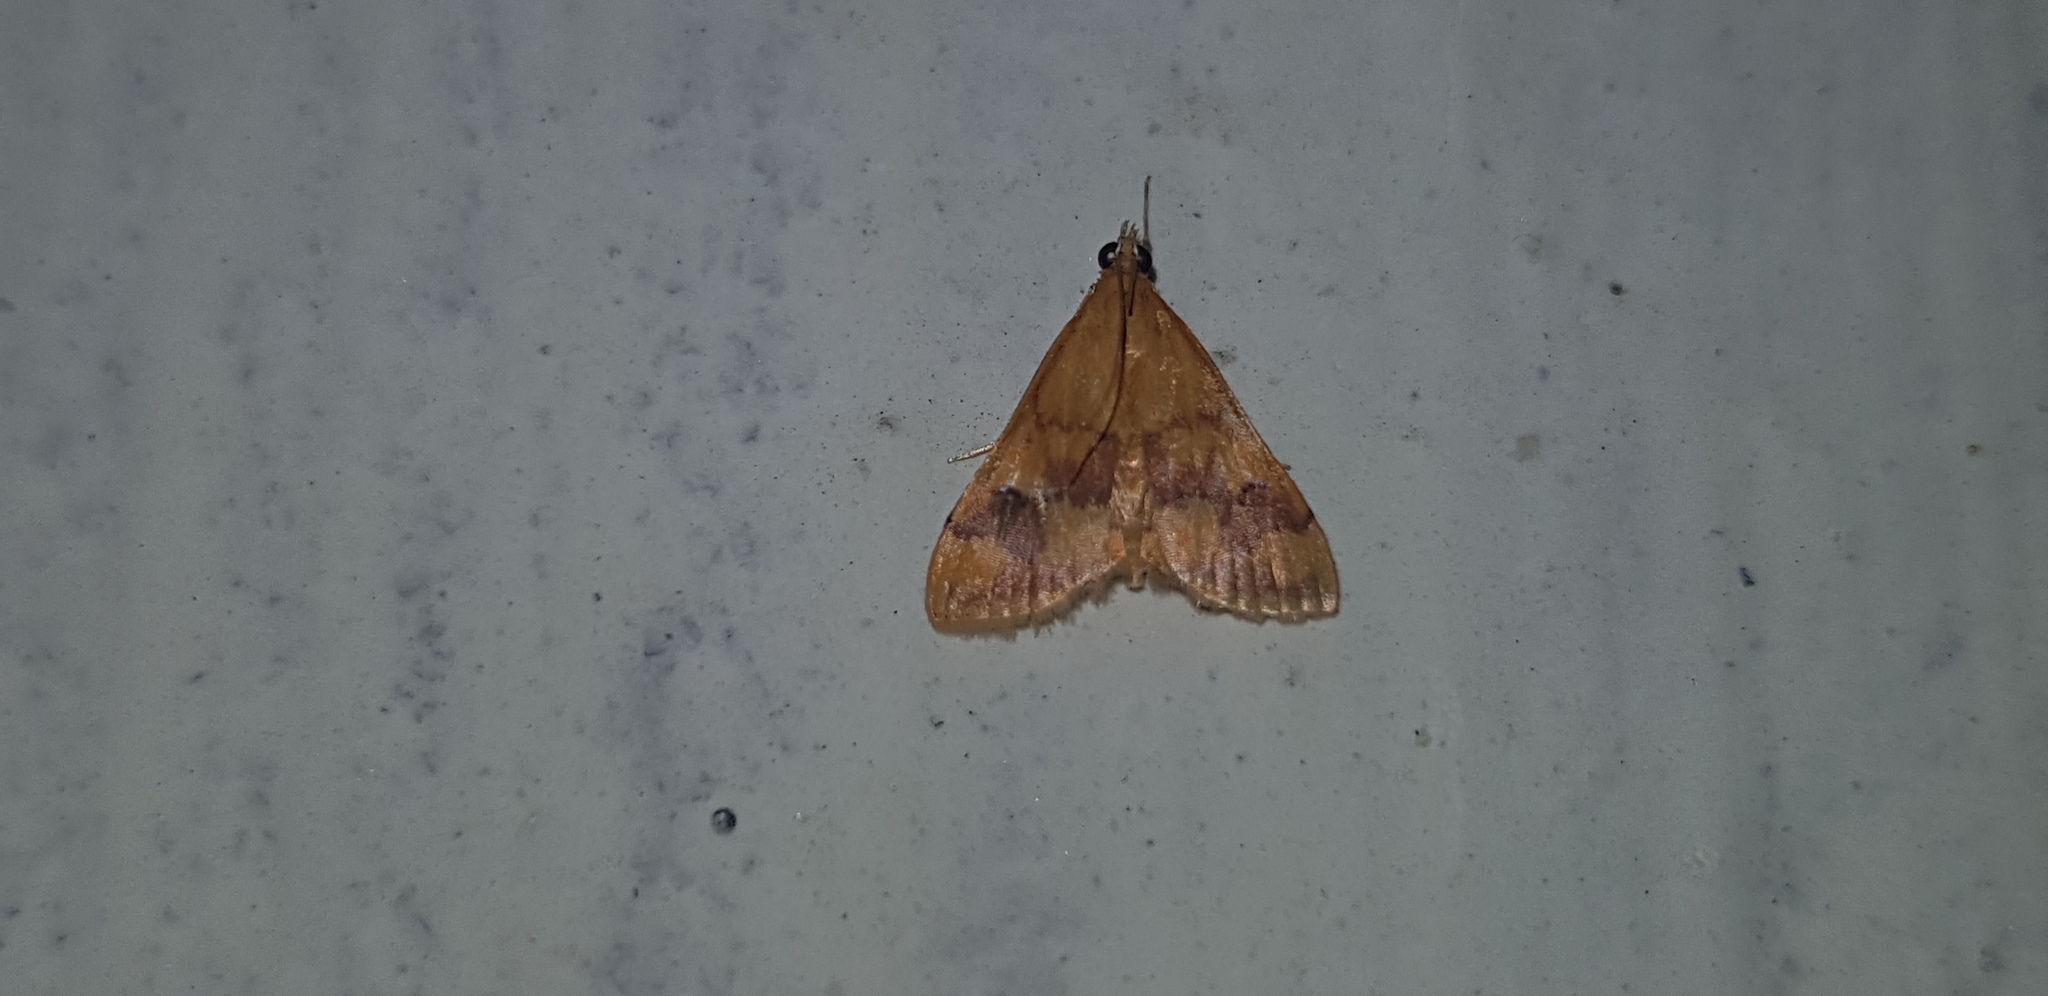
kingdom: Animalia
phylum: Arthropoda
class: Insecta
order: Lepidoptera
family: Crambidae
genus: Pyrausta
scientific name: Pyrausta phoenicealis
